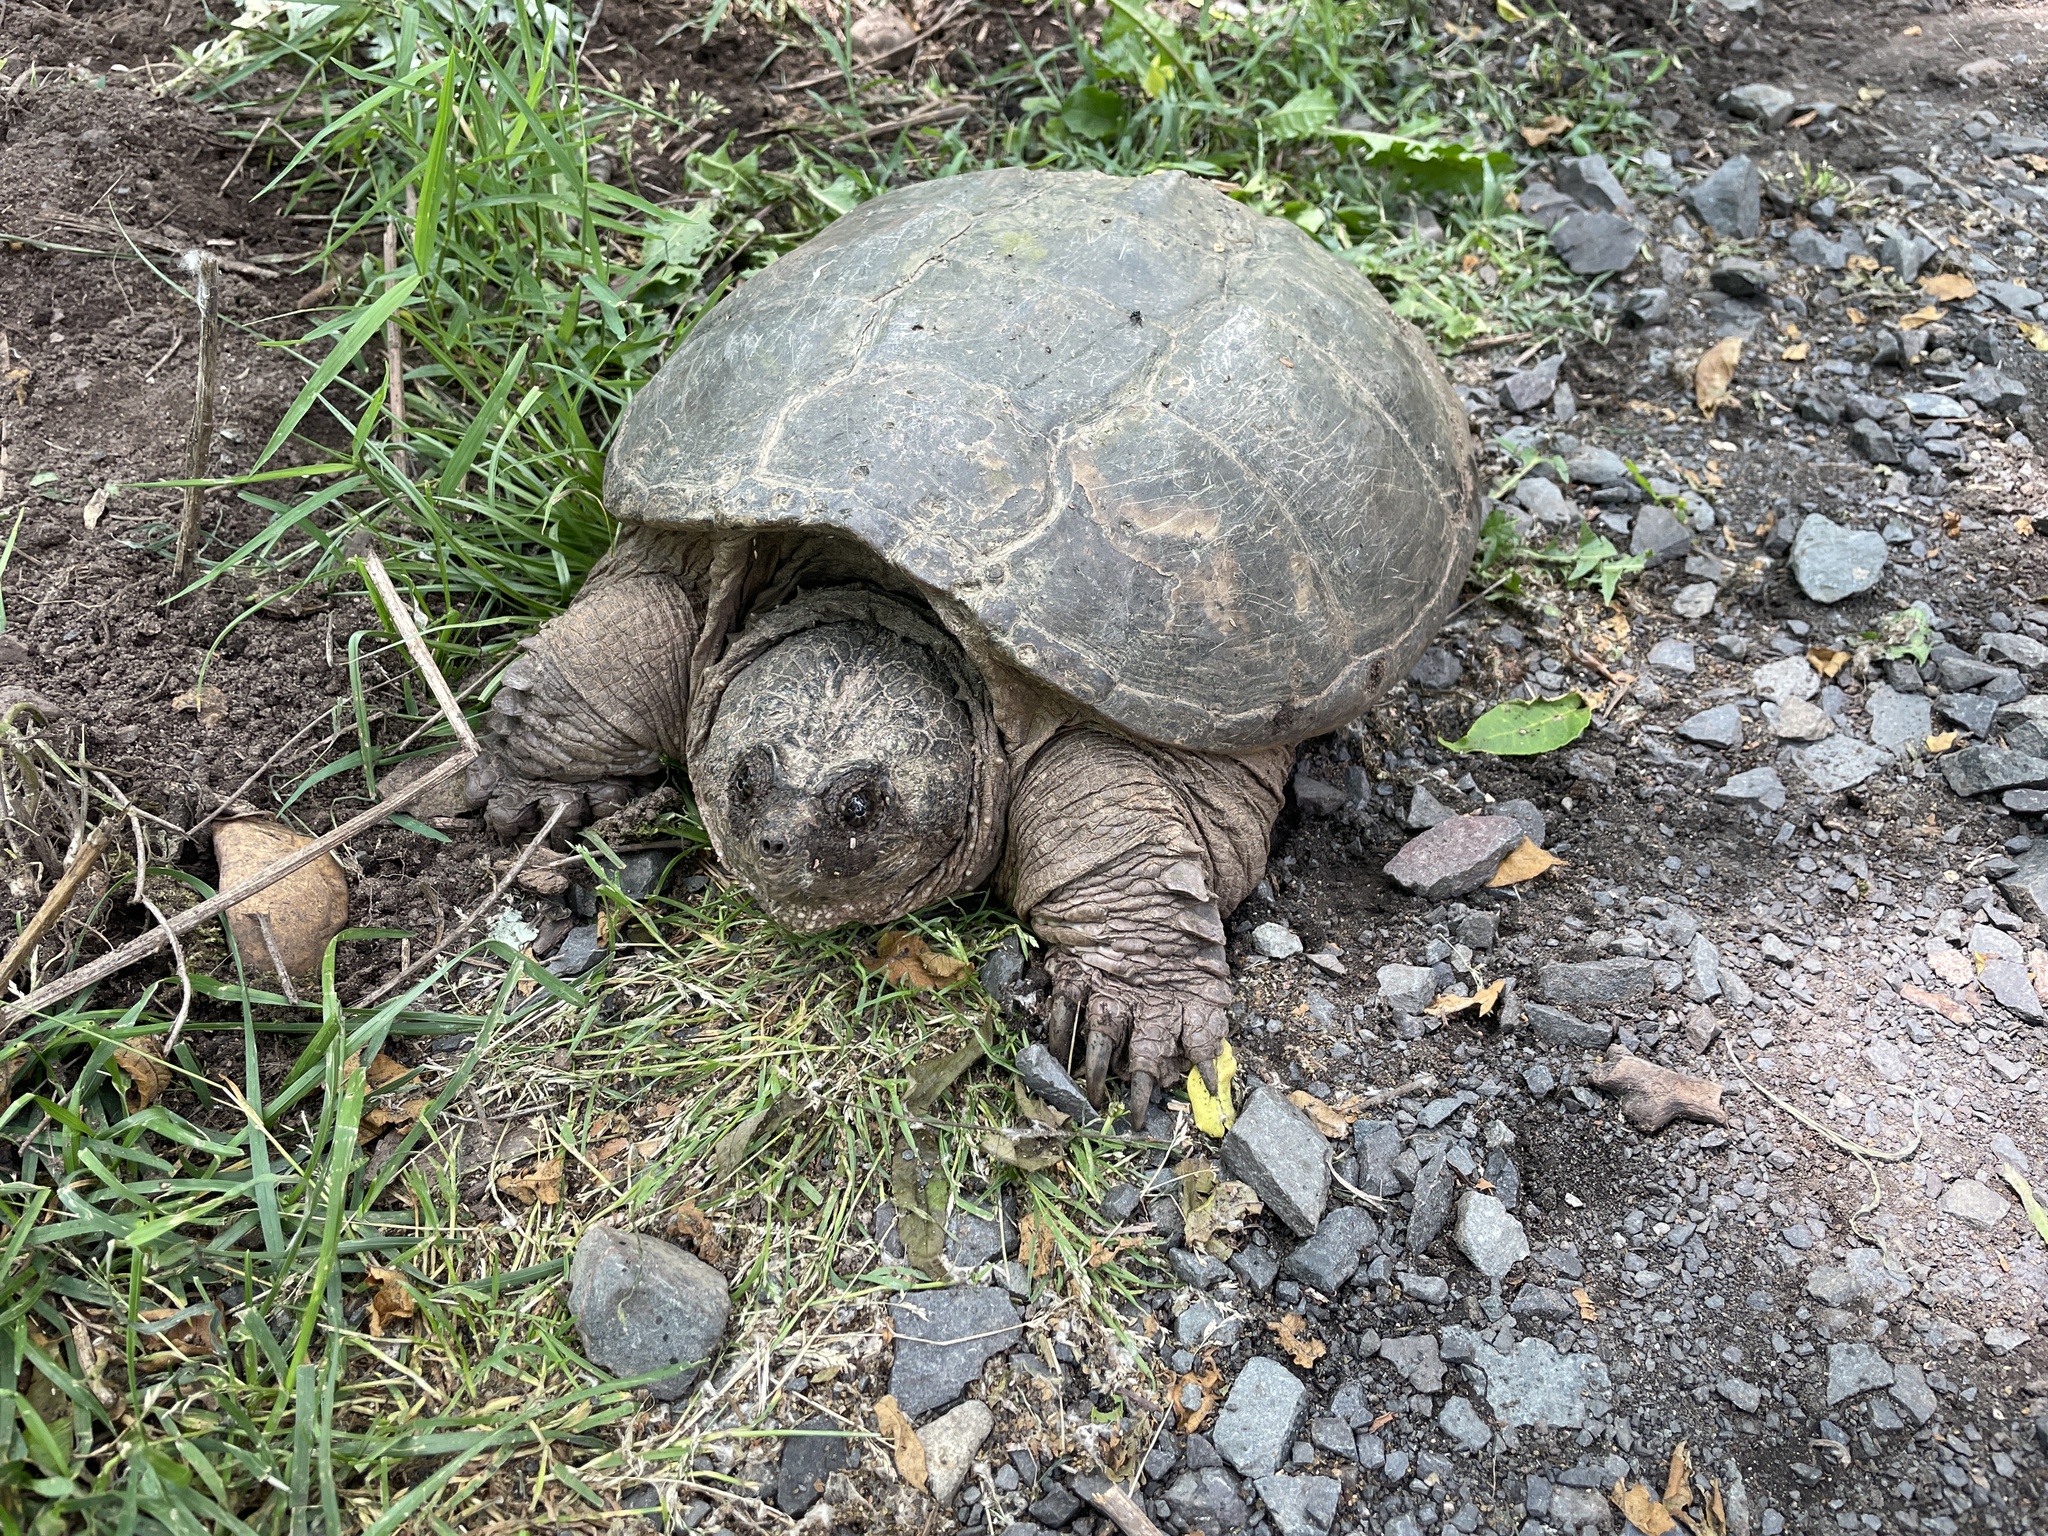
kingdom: Animalia
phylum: Chordata
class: Testudines
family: Chelydridae
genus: Chelydra
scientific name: Chelydra serpentina
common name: Common snapping turtle
